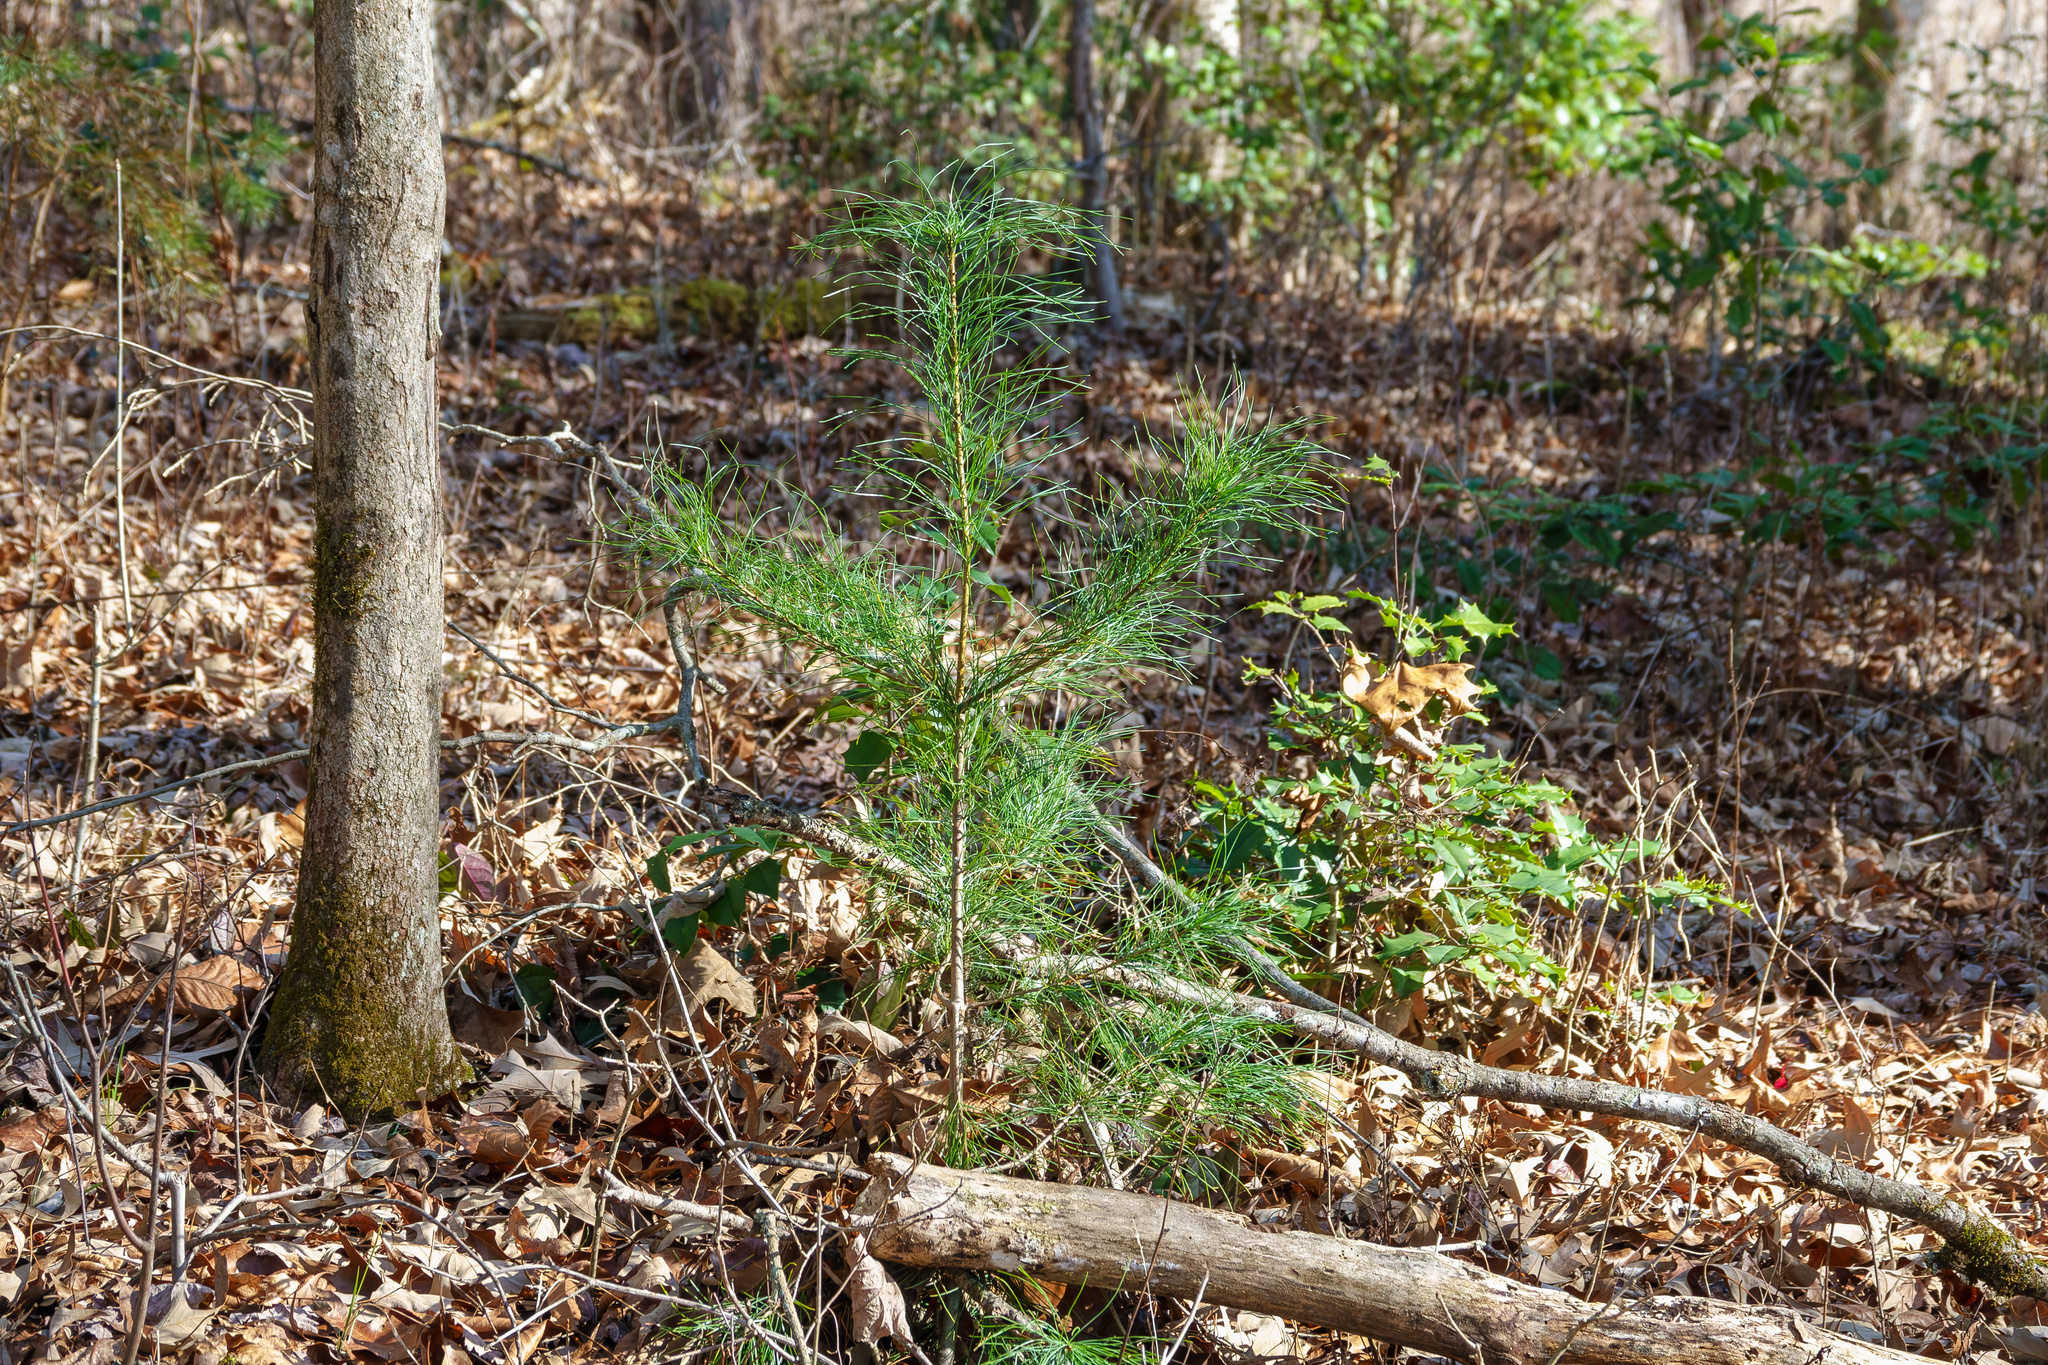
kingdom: Plantae
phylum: Tracheophyta
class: Pinopsida
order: Pinales
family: Pinaceae
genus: Pinus
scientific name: Pinus strobus
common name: Weymouth pine
